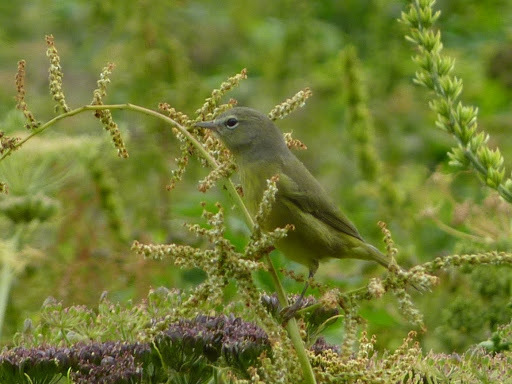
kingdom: Animalia
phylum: Chordata
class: Aves
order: Passeriformes
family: Parulidae
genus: Leiothlypis
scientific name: Leiothlypis celata
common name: Orange-crowned warbler
